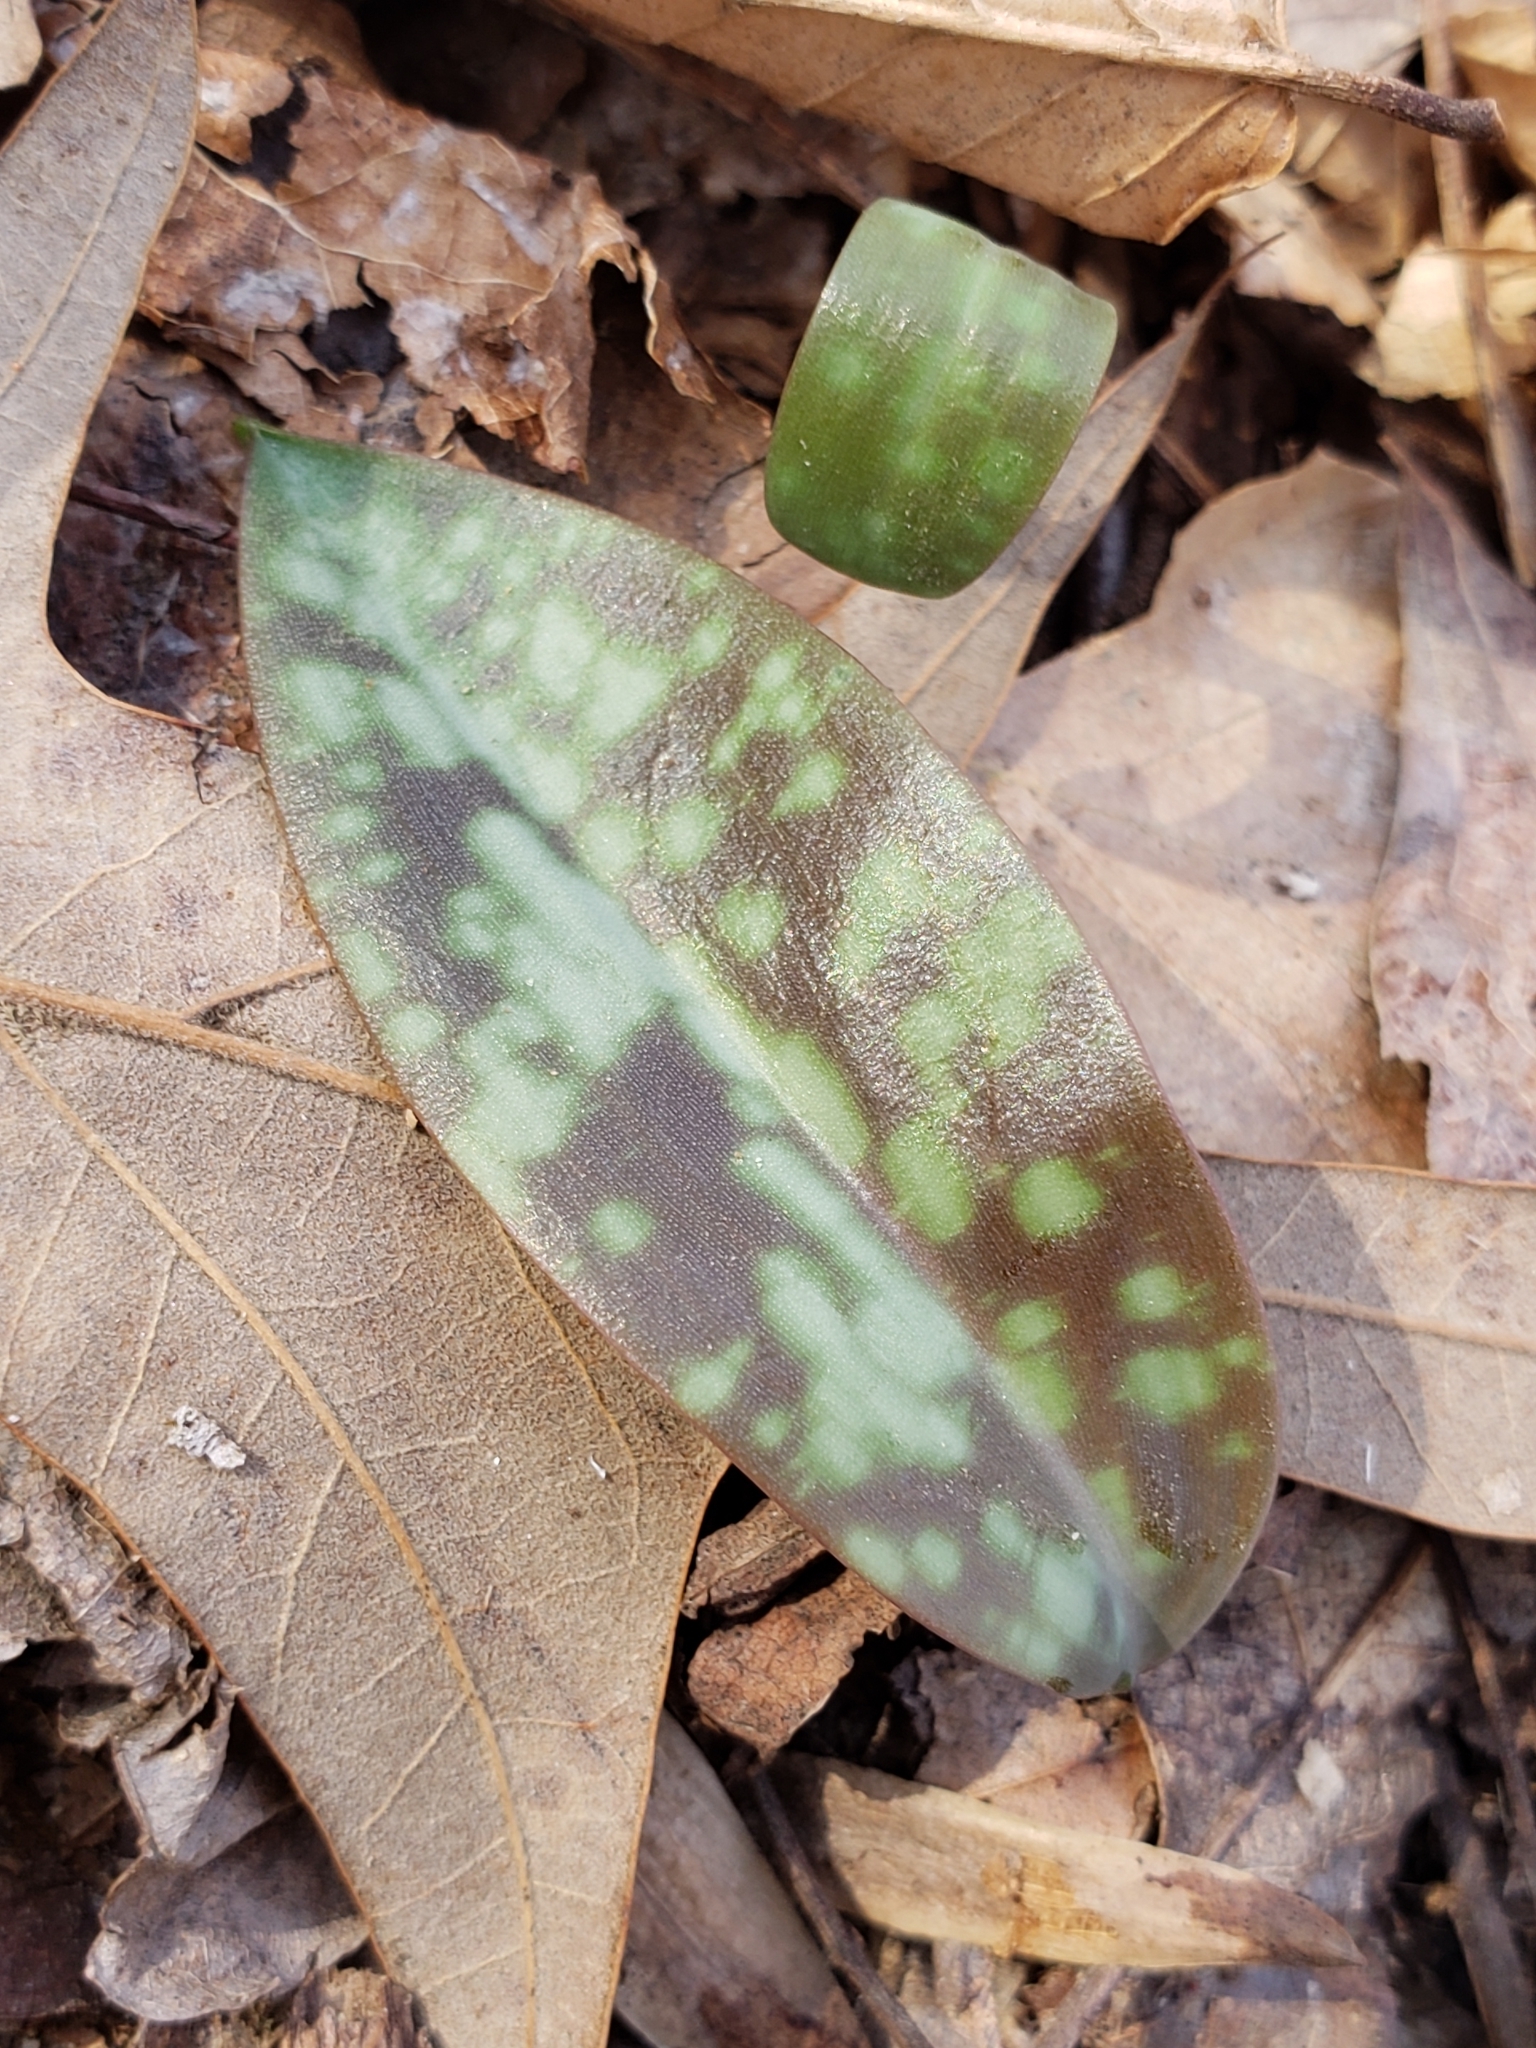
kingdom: Plantae
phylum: Tracheophyta
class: Liliopsida
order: Liliales
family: Liliaceae
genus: Erythronium
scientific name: Erythronium americanum
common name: Yellow adder's-tongue
